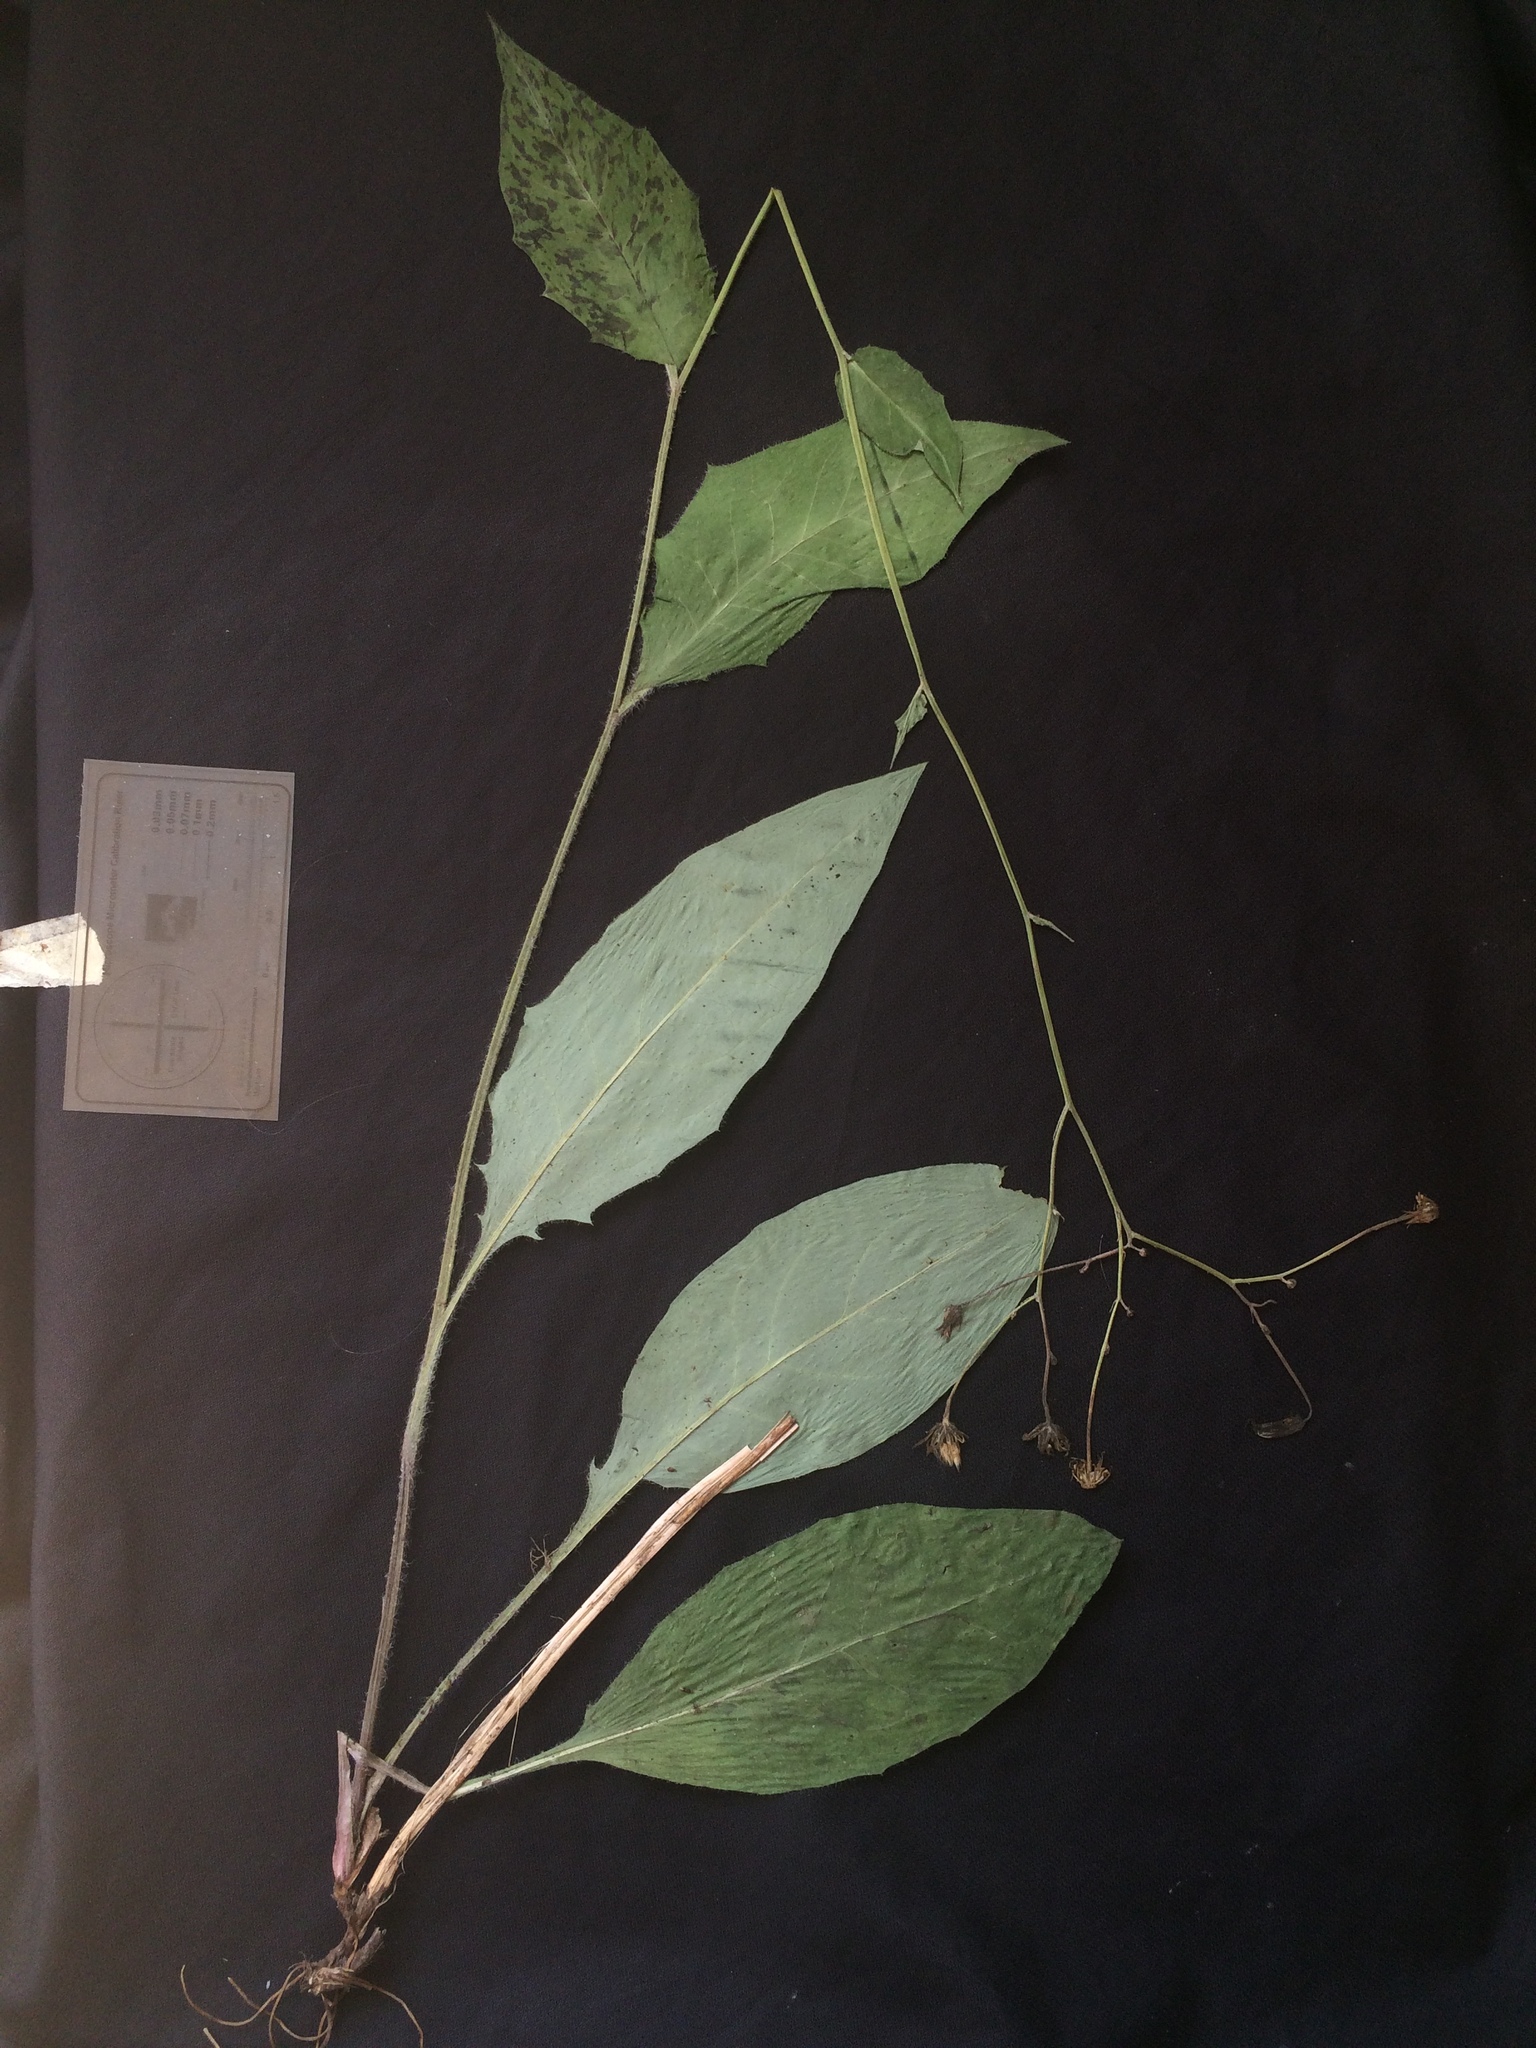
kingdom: Plantae
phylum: Tracheophyta
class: Magnoliopsida
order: Asterales
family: Asteraceae
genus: Hieracium
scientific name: Hieracium lachenalii
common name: Common hawkweed
